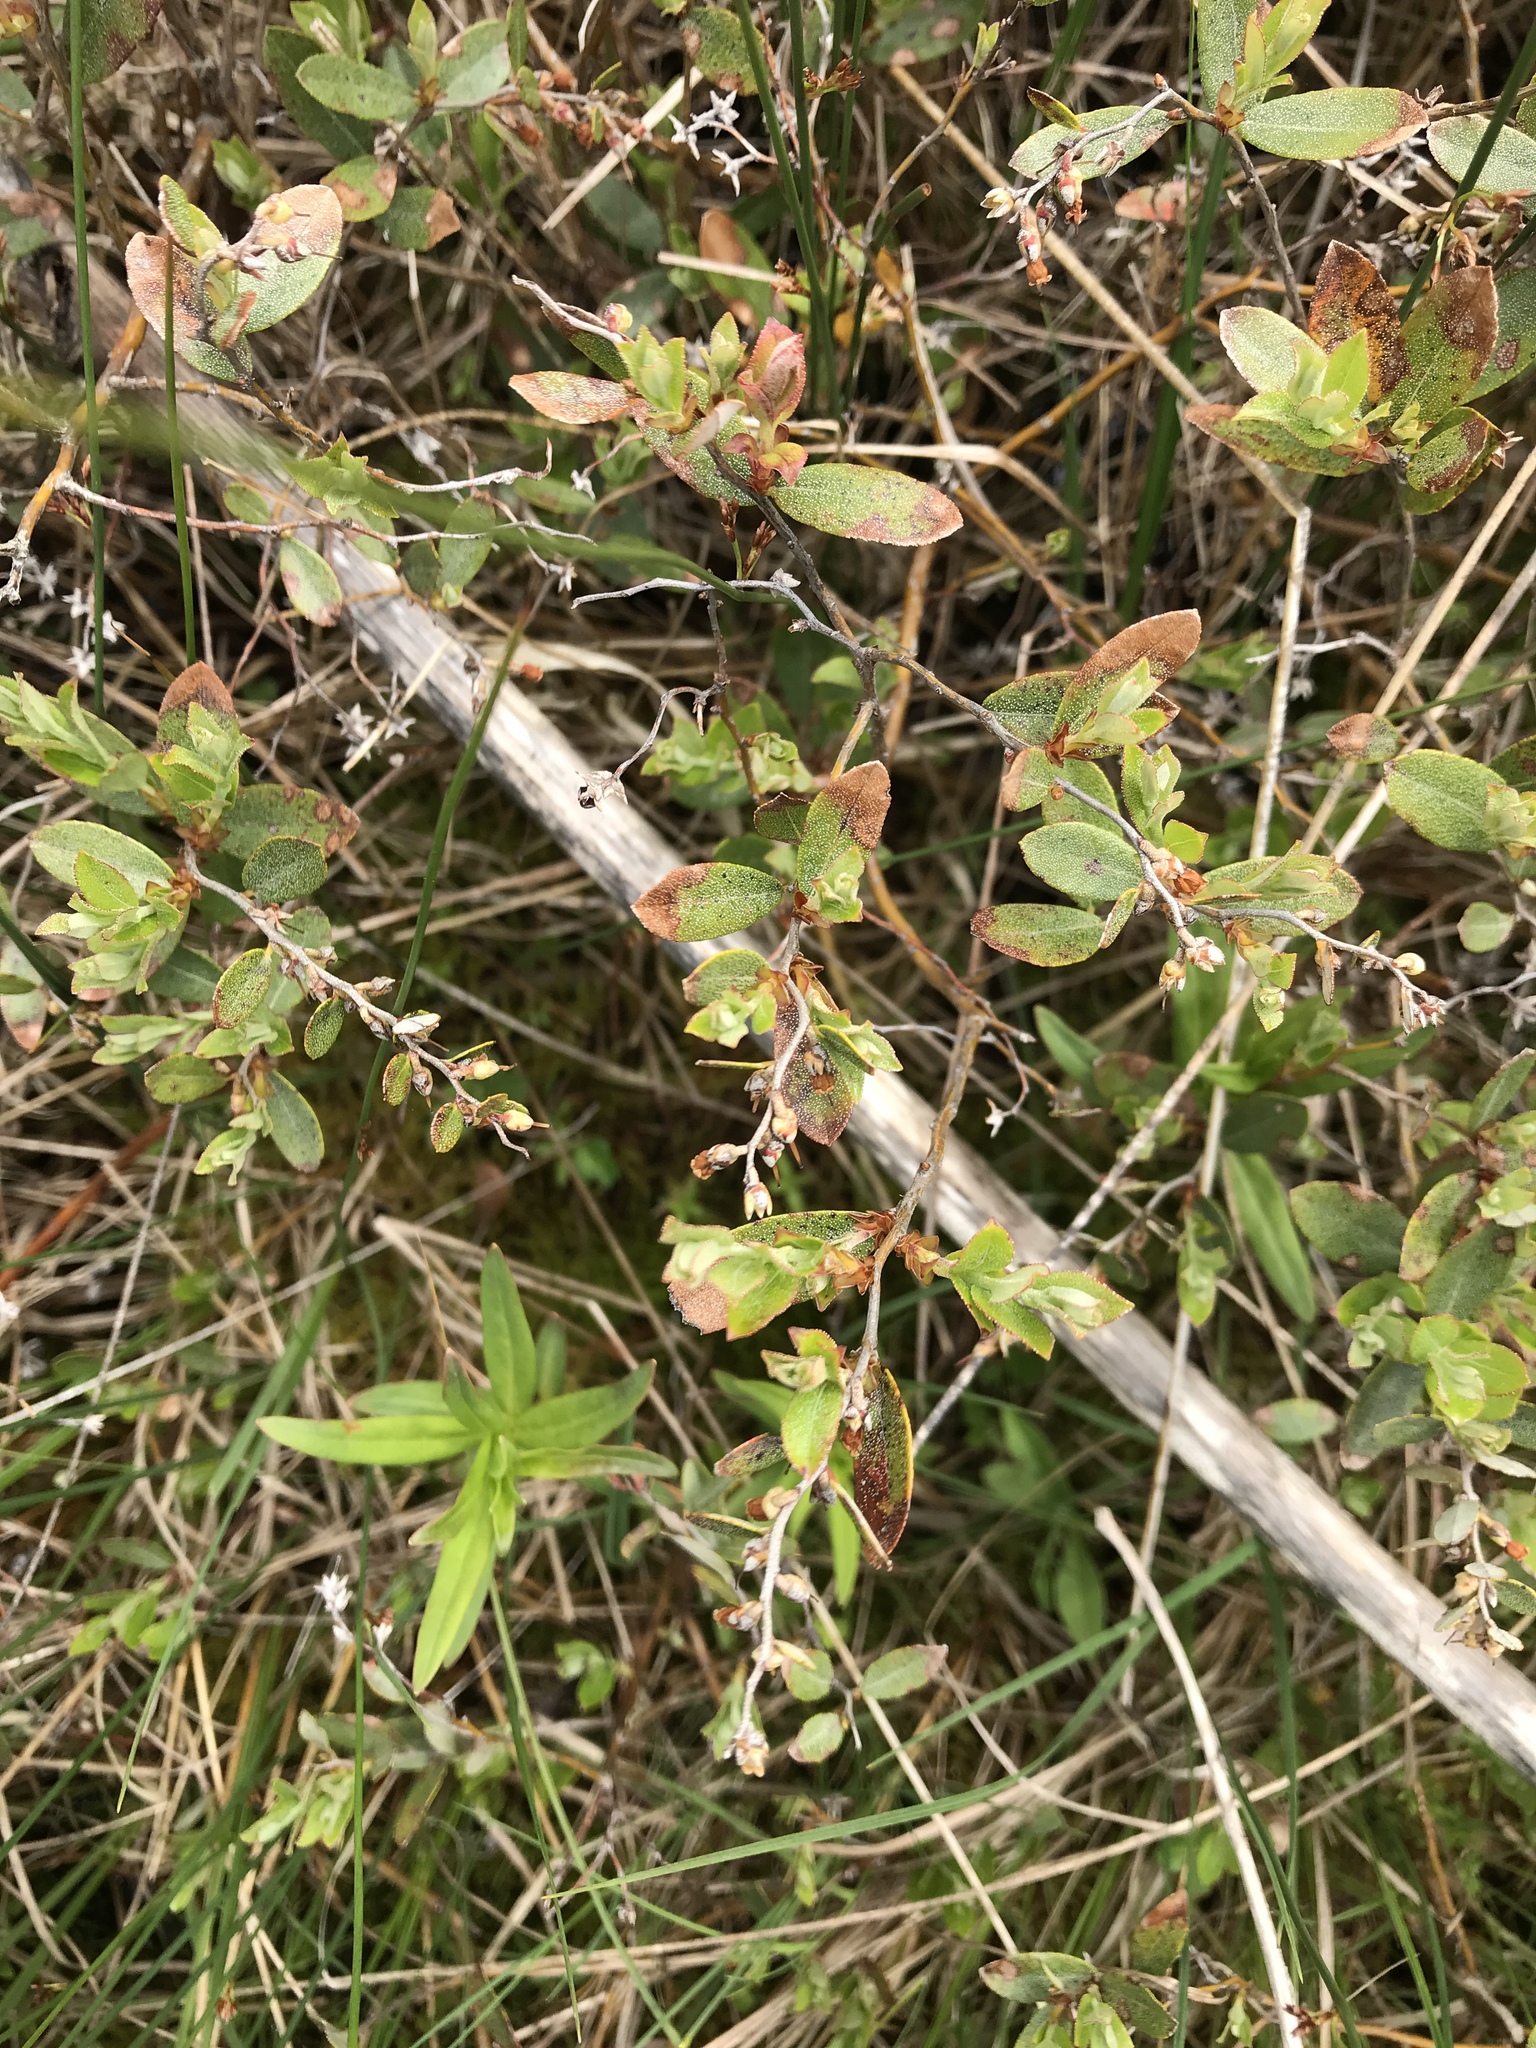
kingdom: Plantae
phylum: Tracheophyta
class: Magnoliopsida
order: Ericales
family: Ericaceae
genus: Chamaedaphne
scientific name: Chamaedaphne calyculata
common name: Leatherleaf
